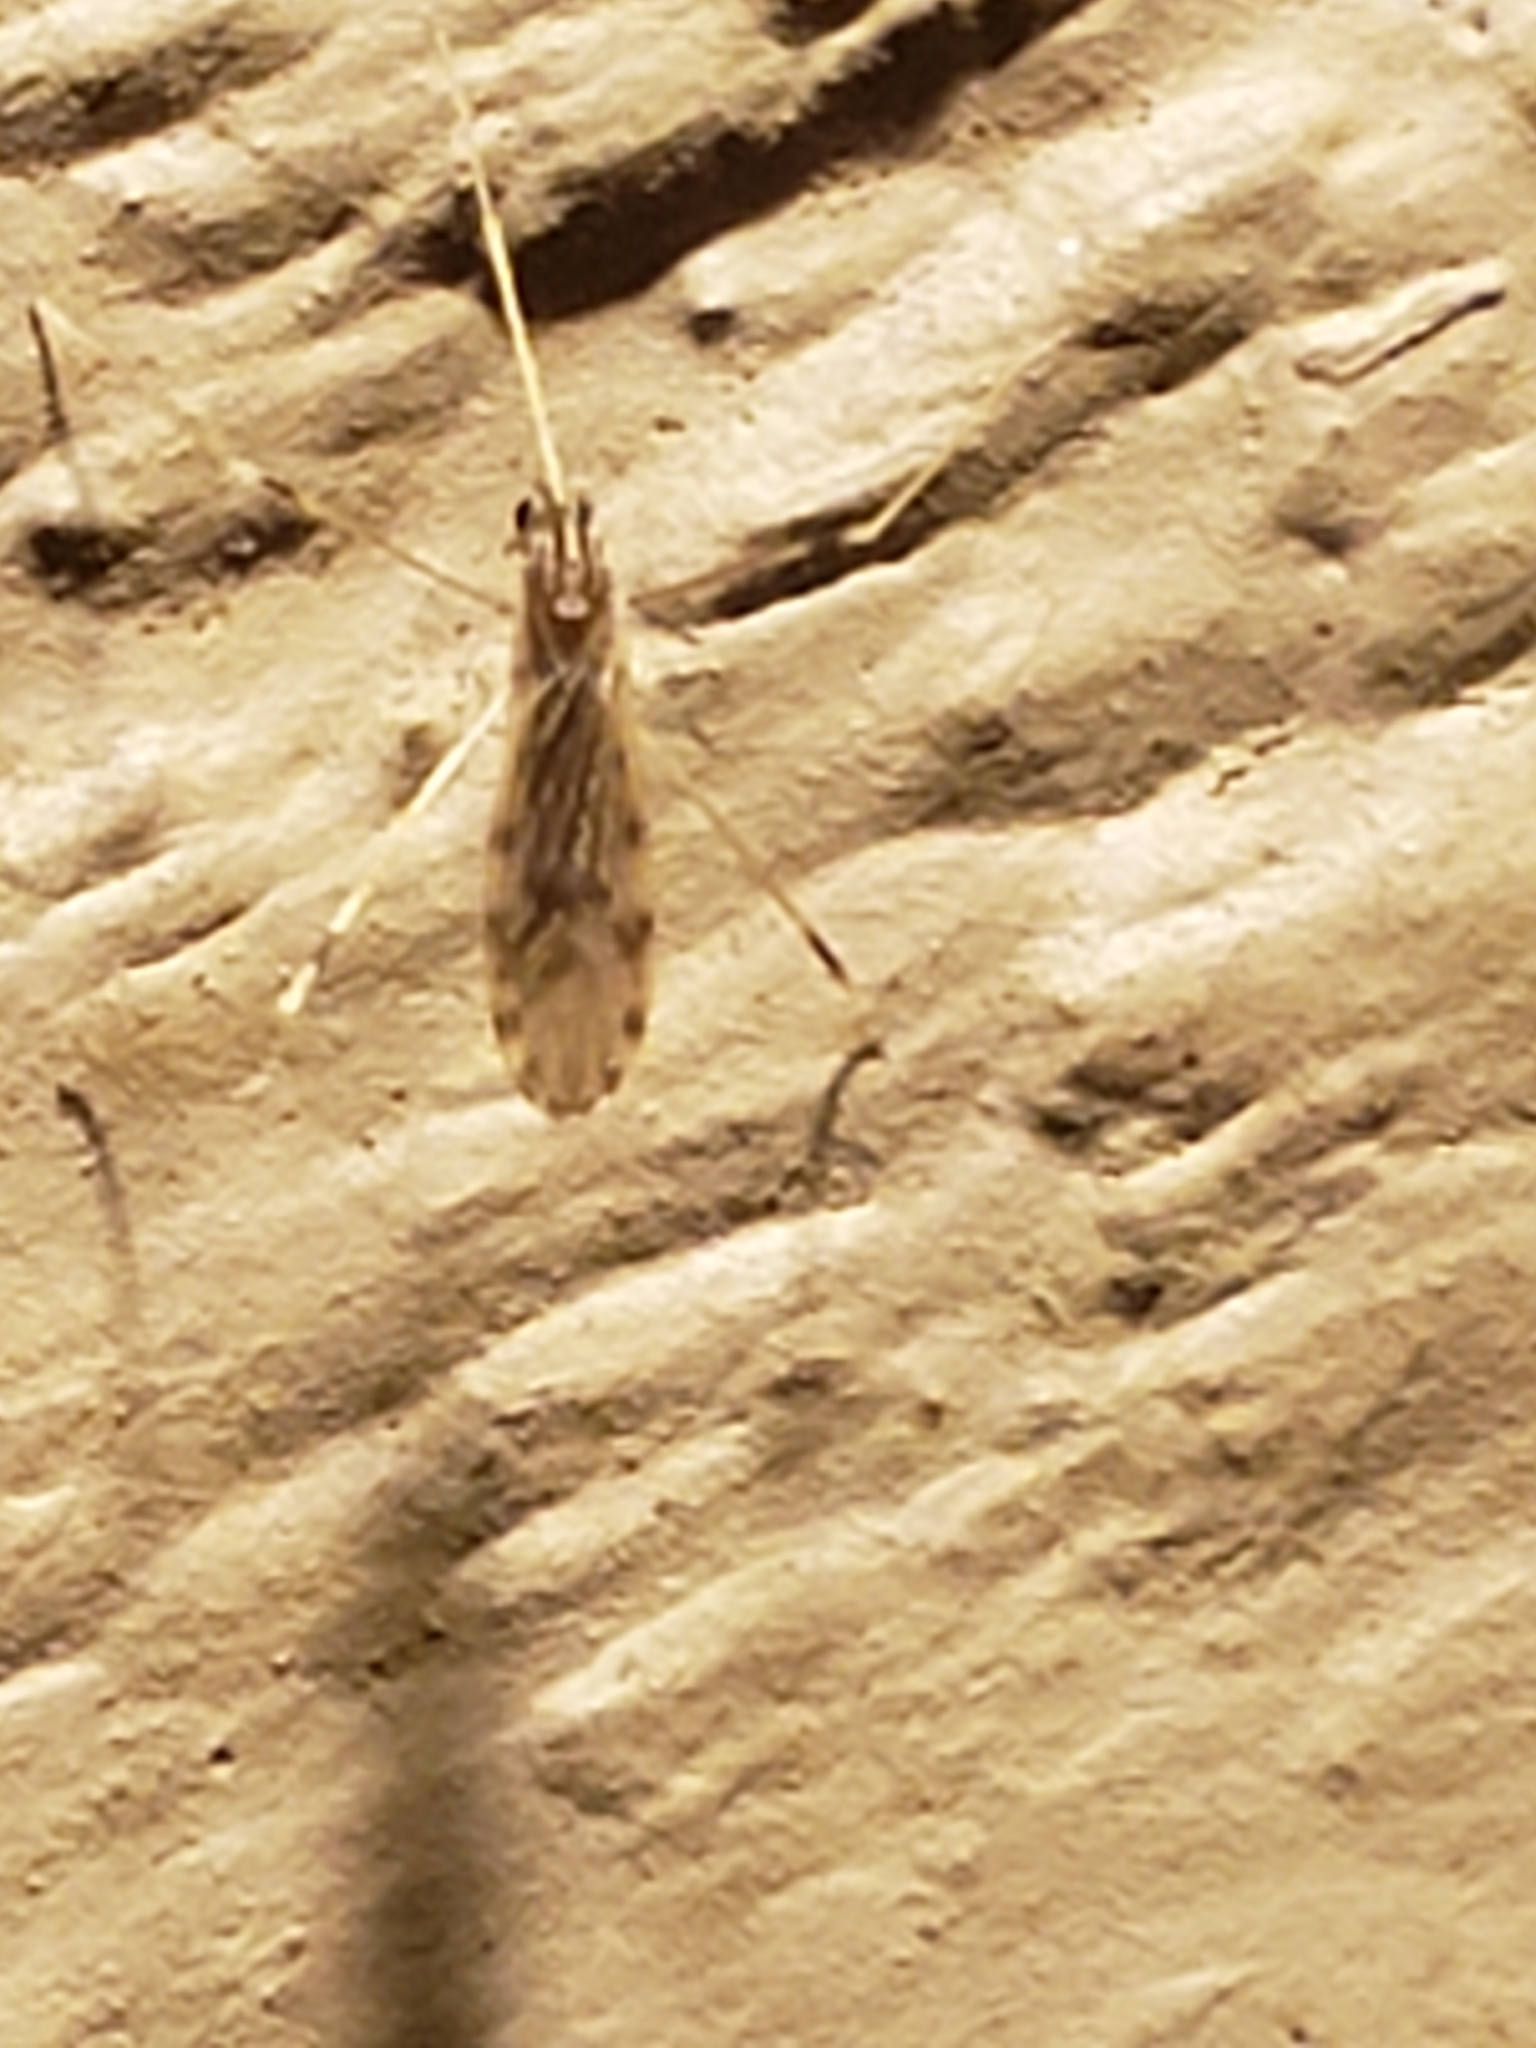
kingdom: Animalia
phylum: Arthropoda
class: Insecta
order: Diptera
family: Limoniidae
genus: Erioptera
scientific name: Erioptera parva
